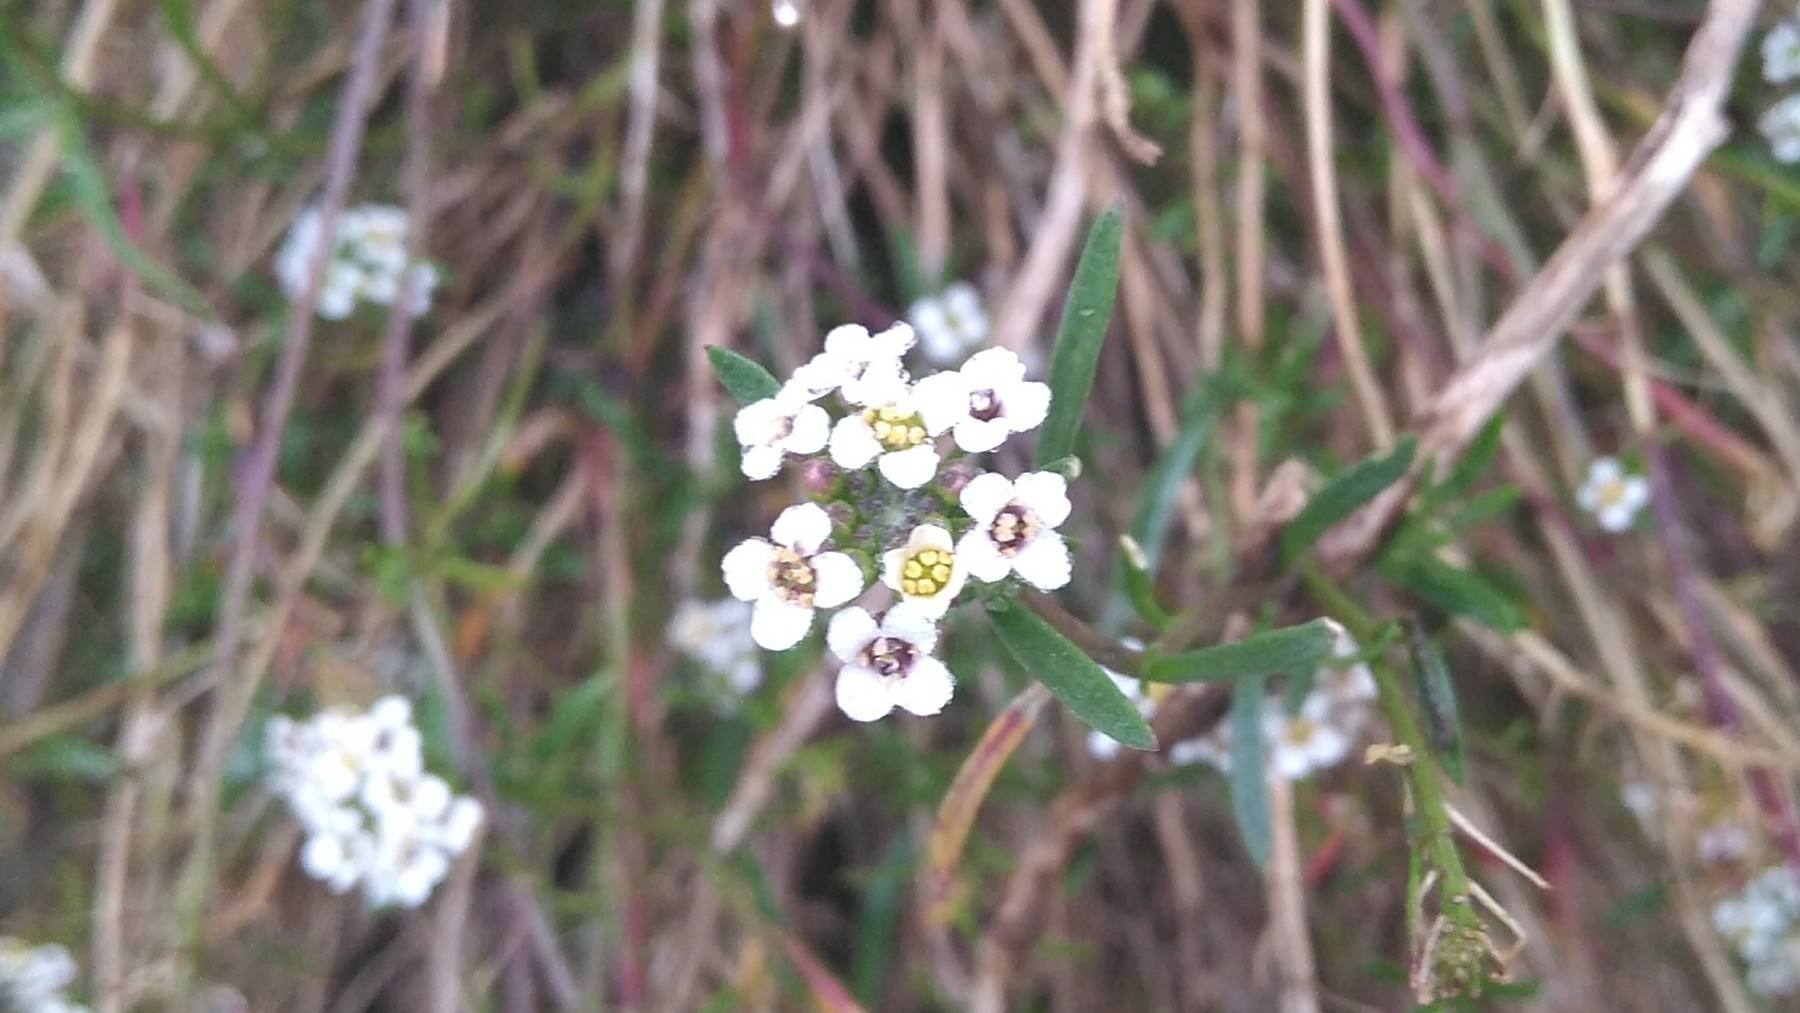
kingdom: Plantae
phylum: Tracheophyta
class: Magnoliopsida
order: Brassicales
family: Brassicaceae
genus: Lobularia
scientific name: Lobularia maritima
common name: Sweet alison
